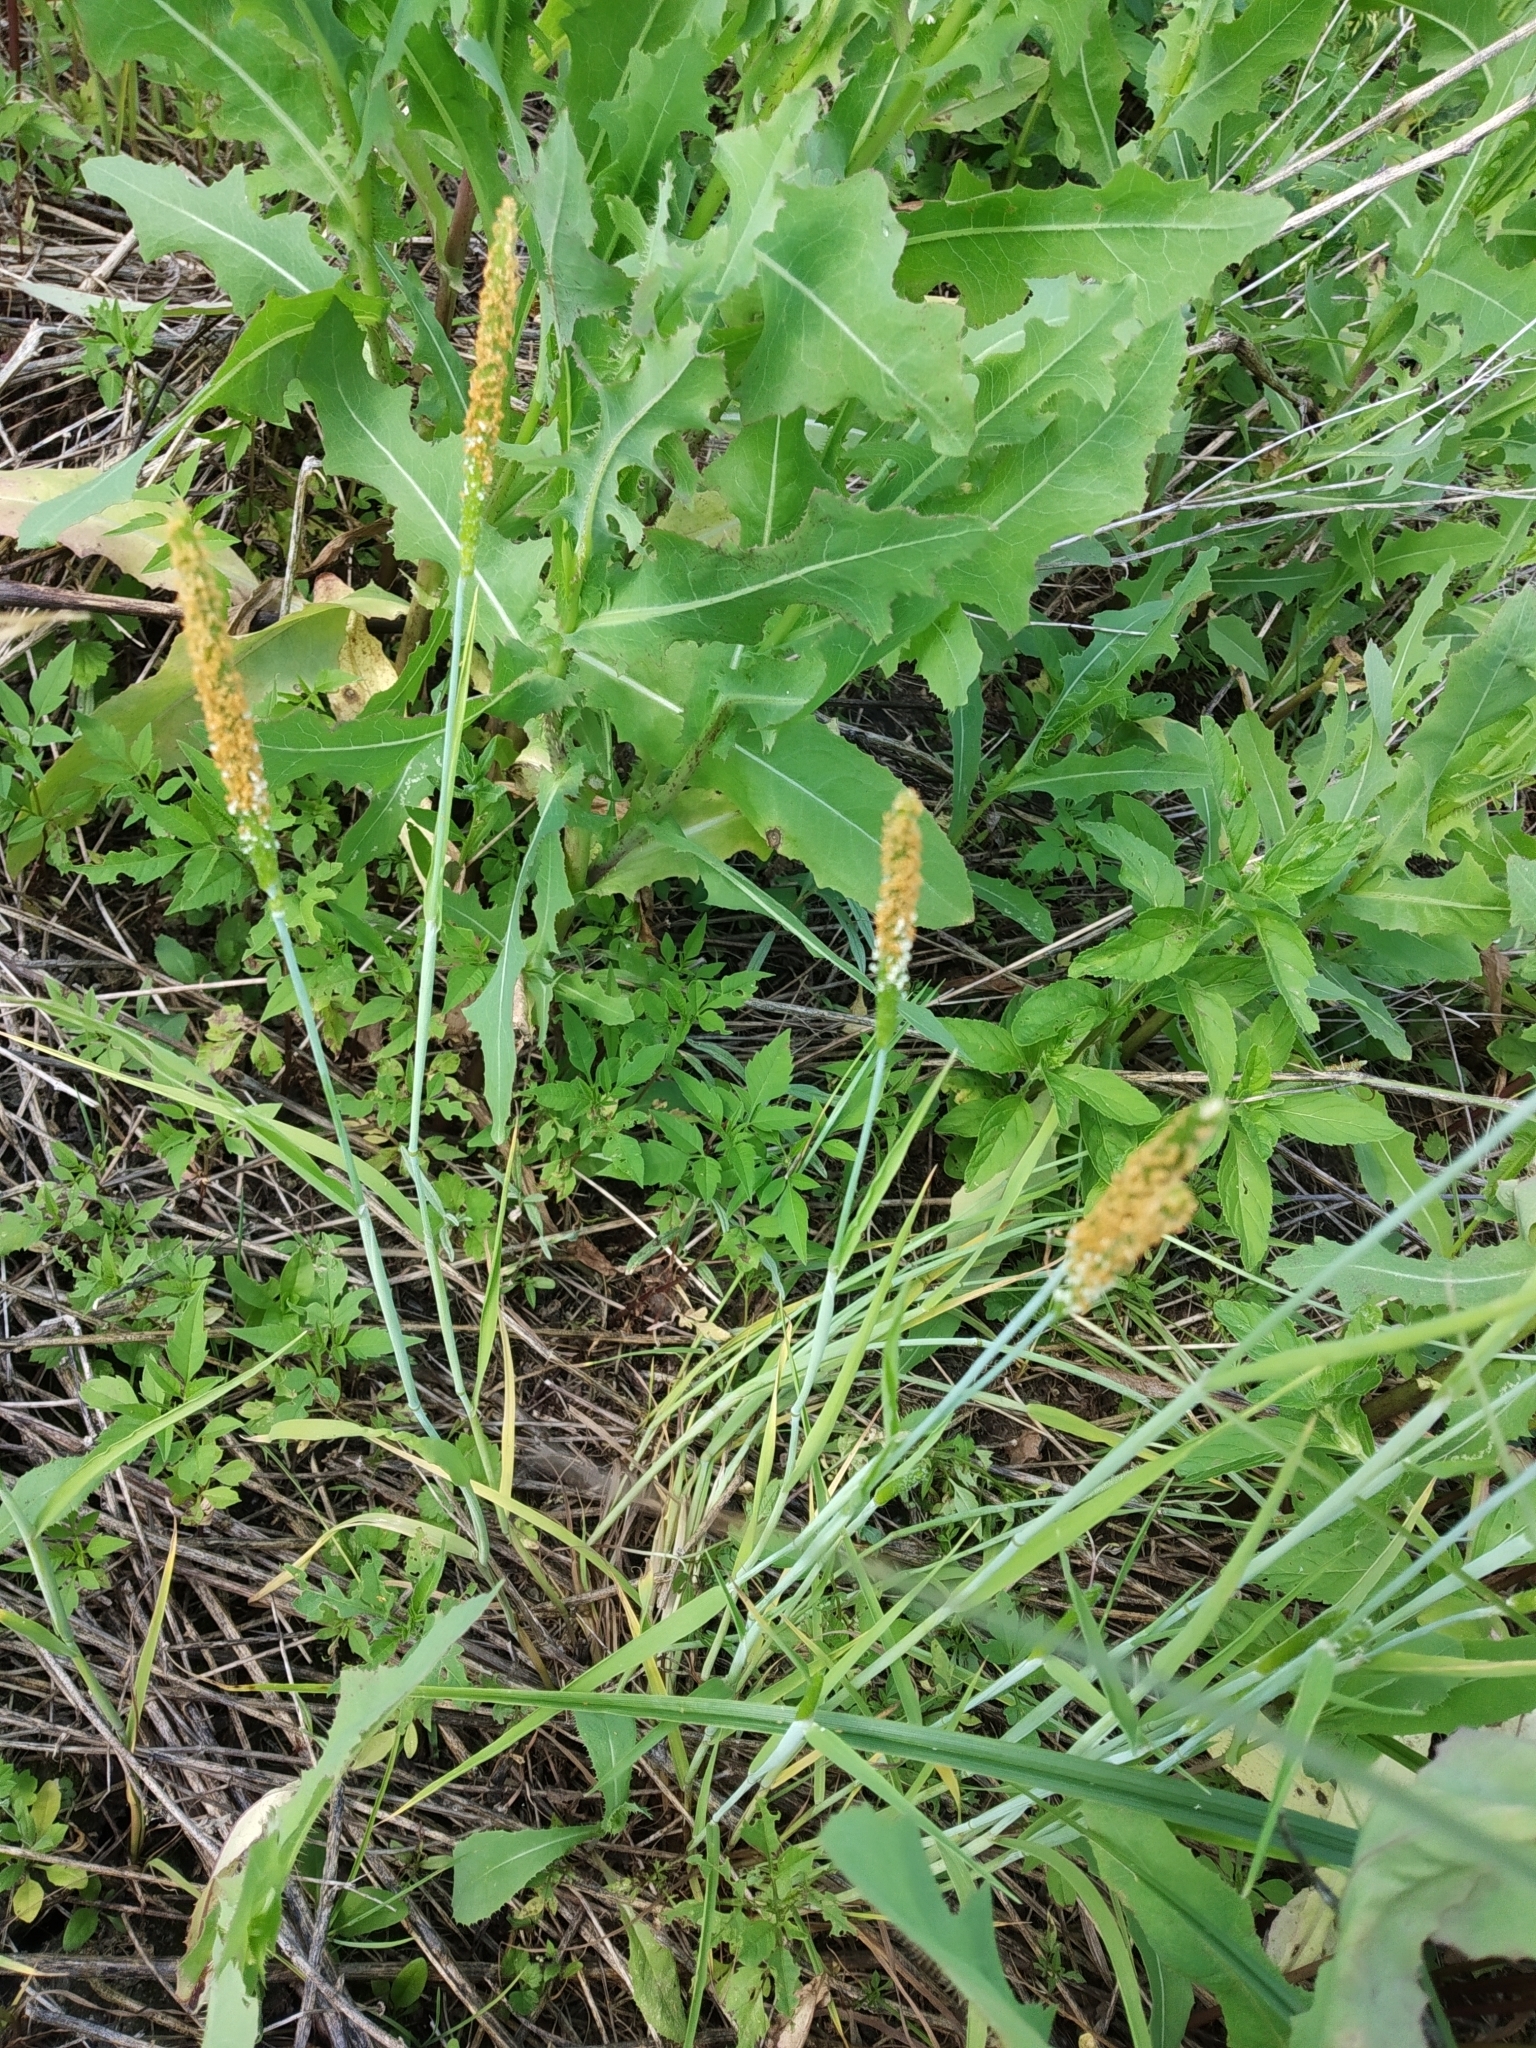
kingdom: Plantae
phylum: Tracheophyta
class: Liliopsida
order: Poales
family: Poaceae
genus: Alopecurus
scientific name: Alopecurus aequalis
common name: Orange foxtail
